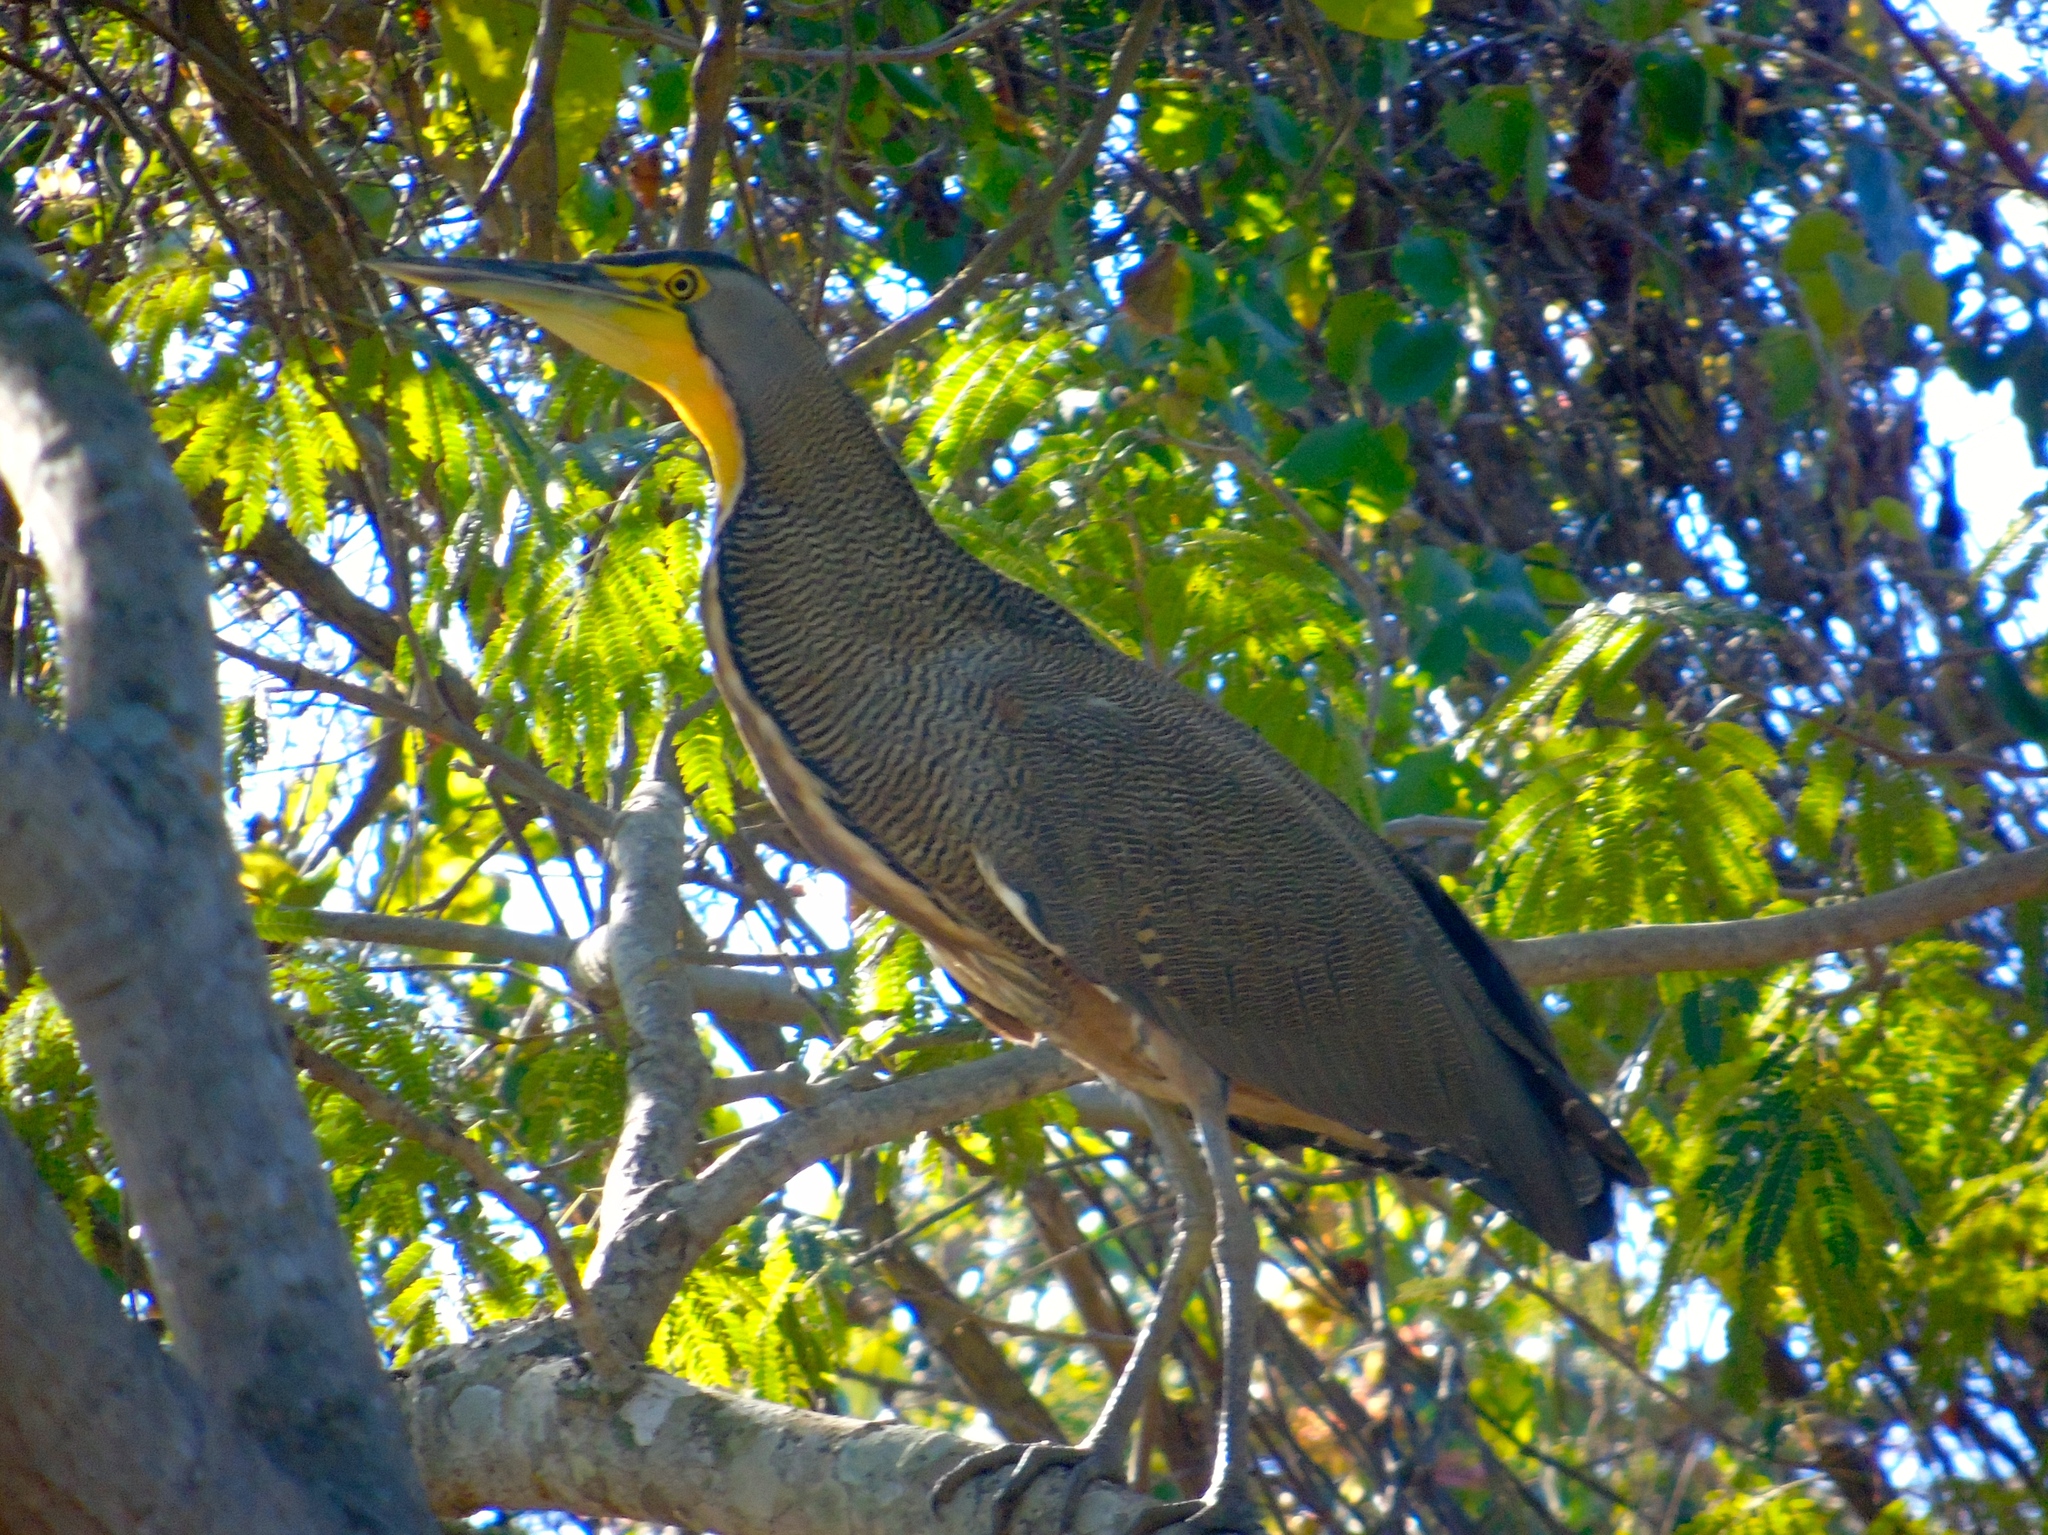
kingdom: Animalia
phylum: Chordata
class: Aves
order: Pelecaniformes
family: Ardeidae
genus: Tigrisoma
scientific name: Tigrisoma mexicanum
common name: Bare-throated tiger-heron
